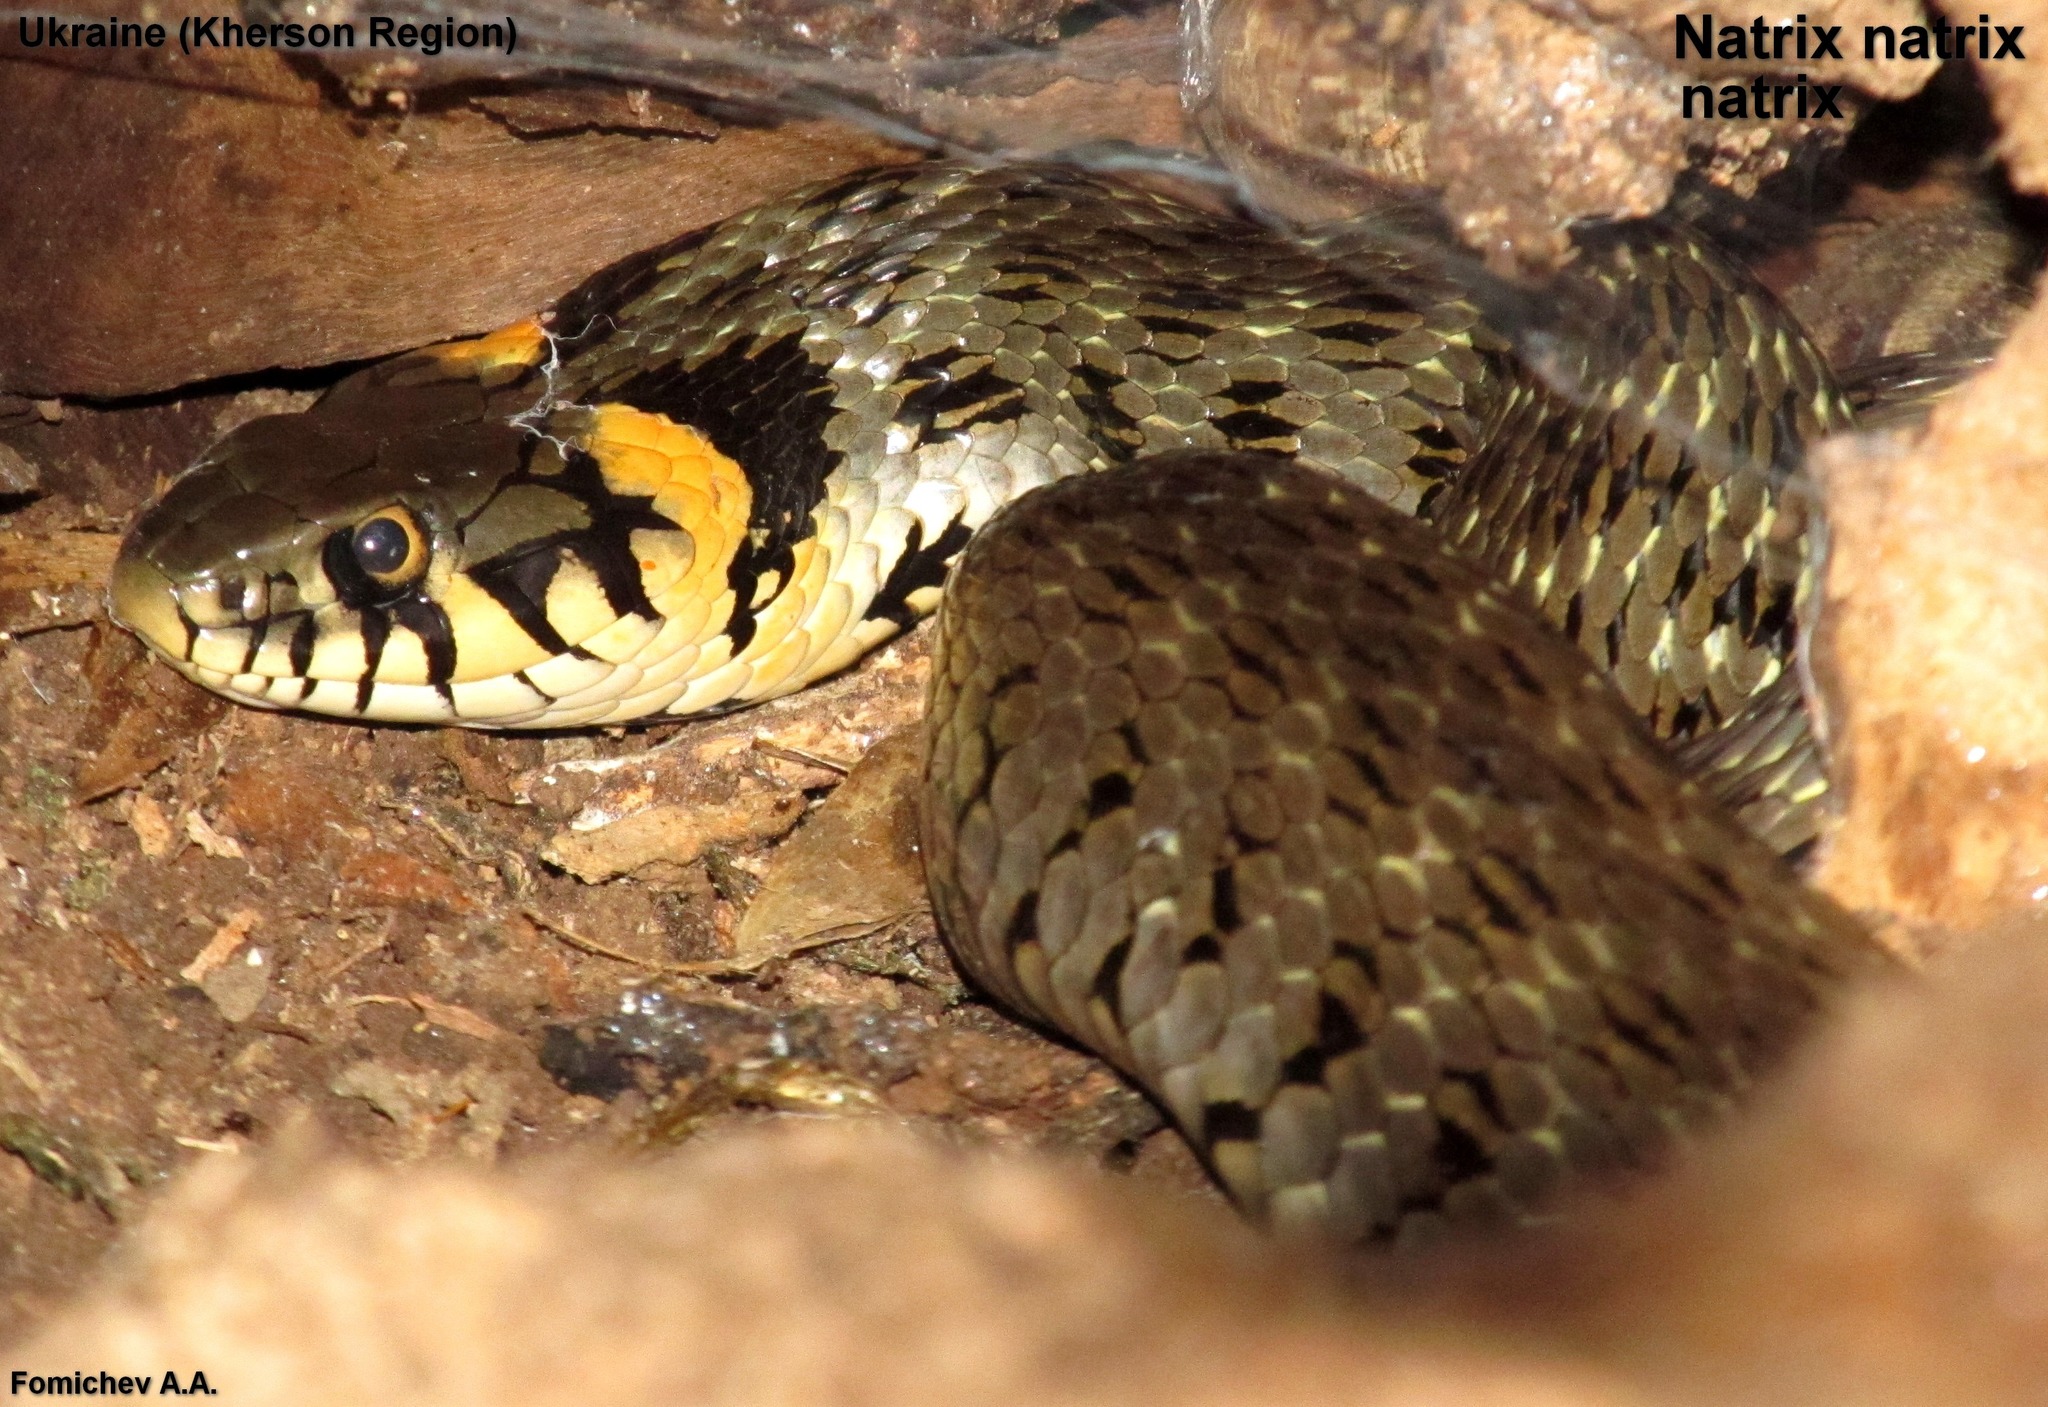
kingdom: Animalia
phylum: Chordata
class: Squamata
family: Colubridae
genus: Natrix
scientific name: Natrix natrix
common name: Grass snake
